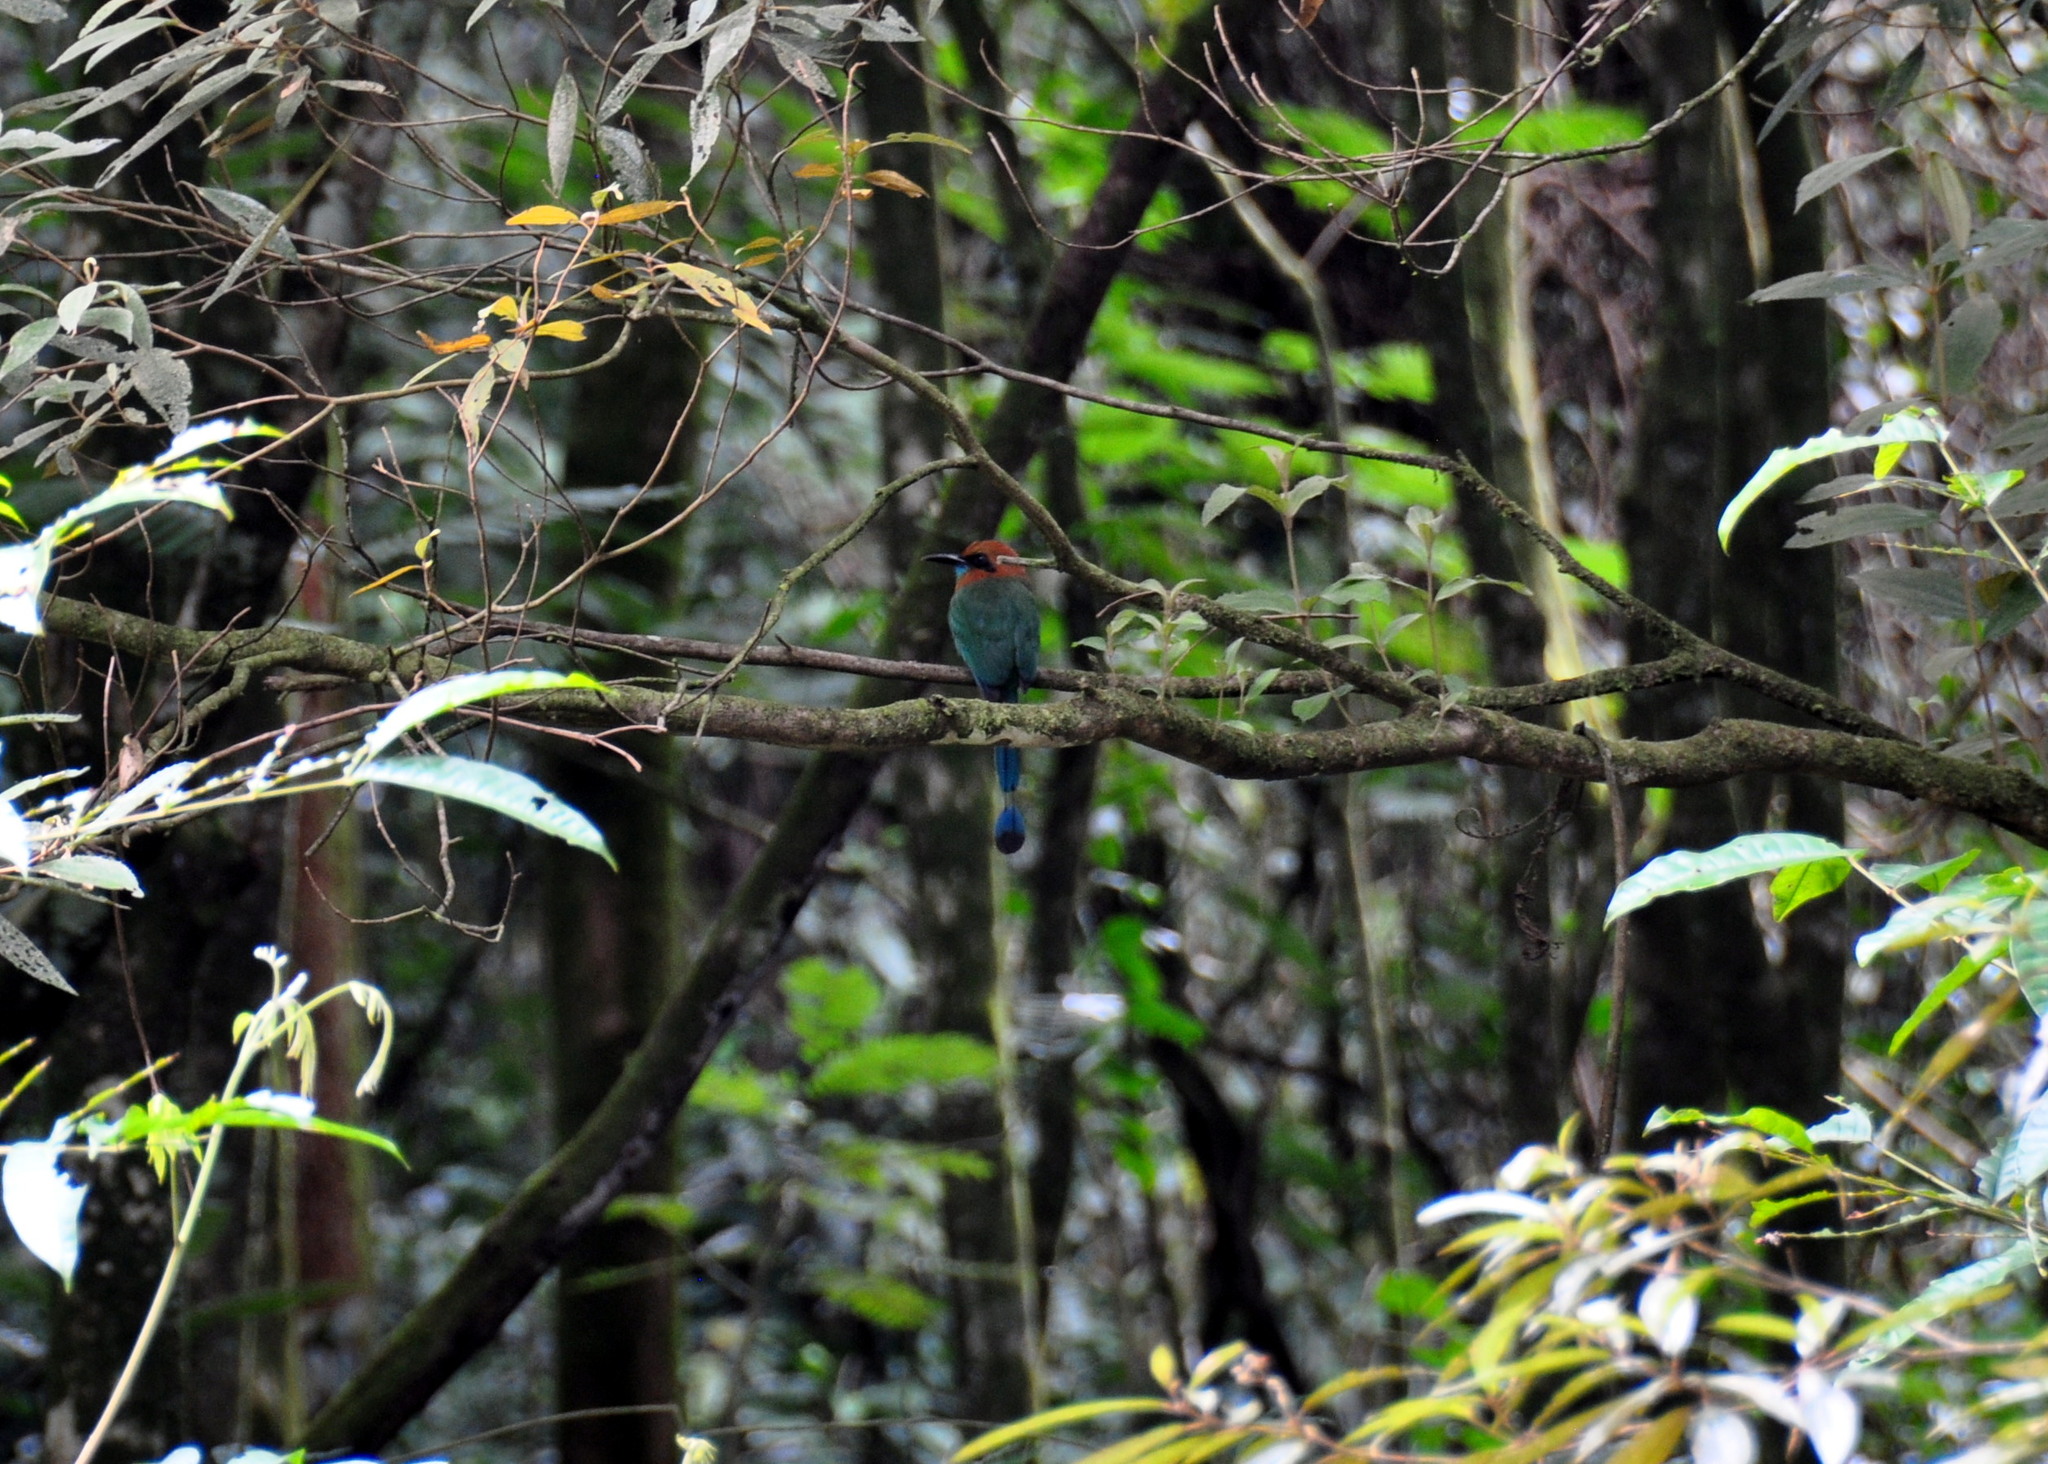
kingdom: Animalia
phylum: Chordata
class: Aves
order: Coraciiformes
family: Momotidae
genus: Electron
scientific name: Electron platyrhynchum
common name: Broad-billed motmot
